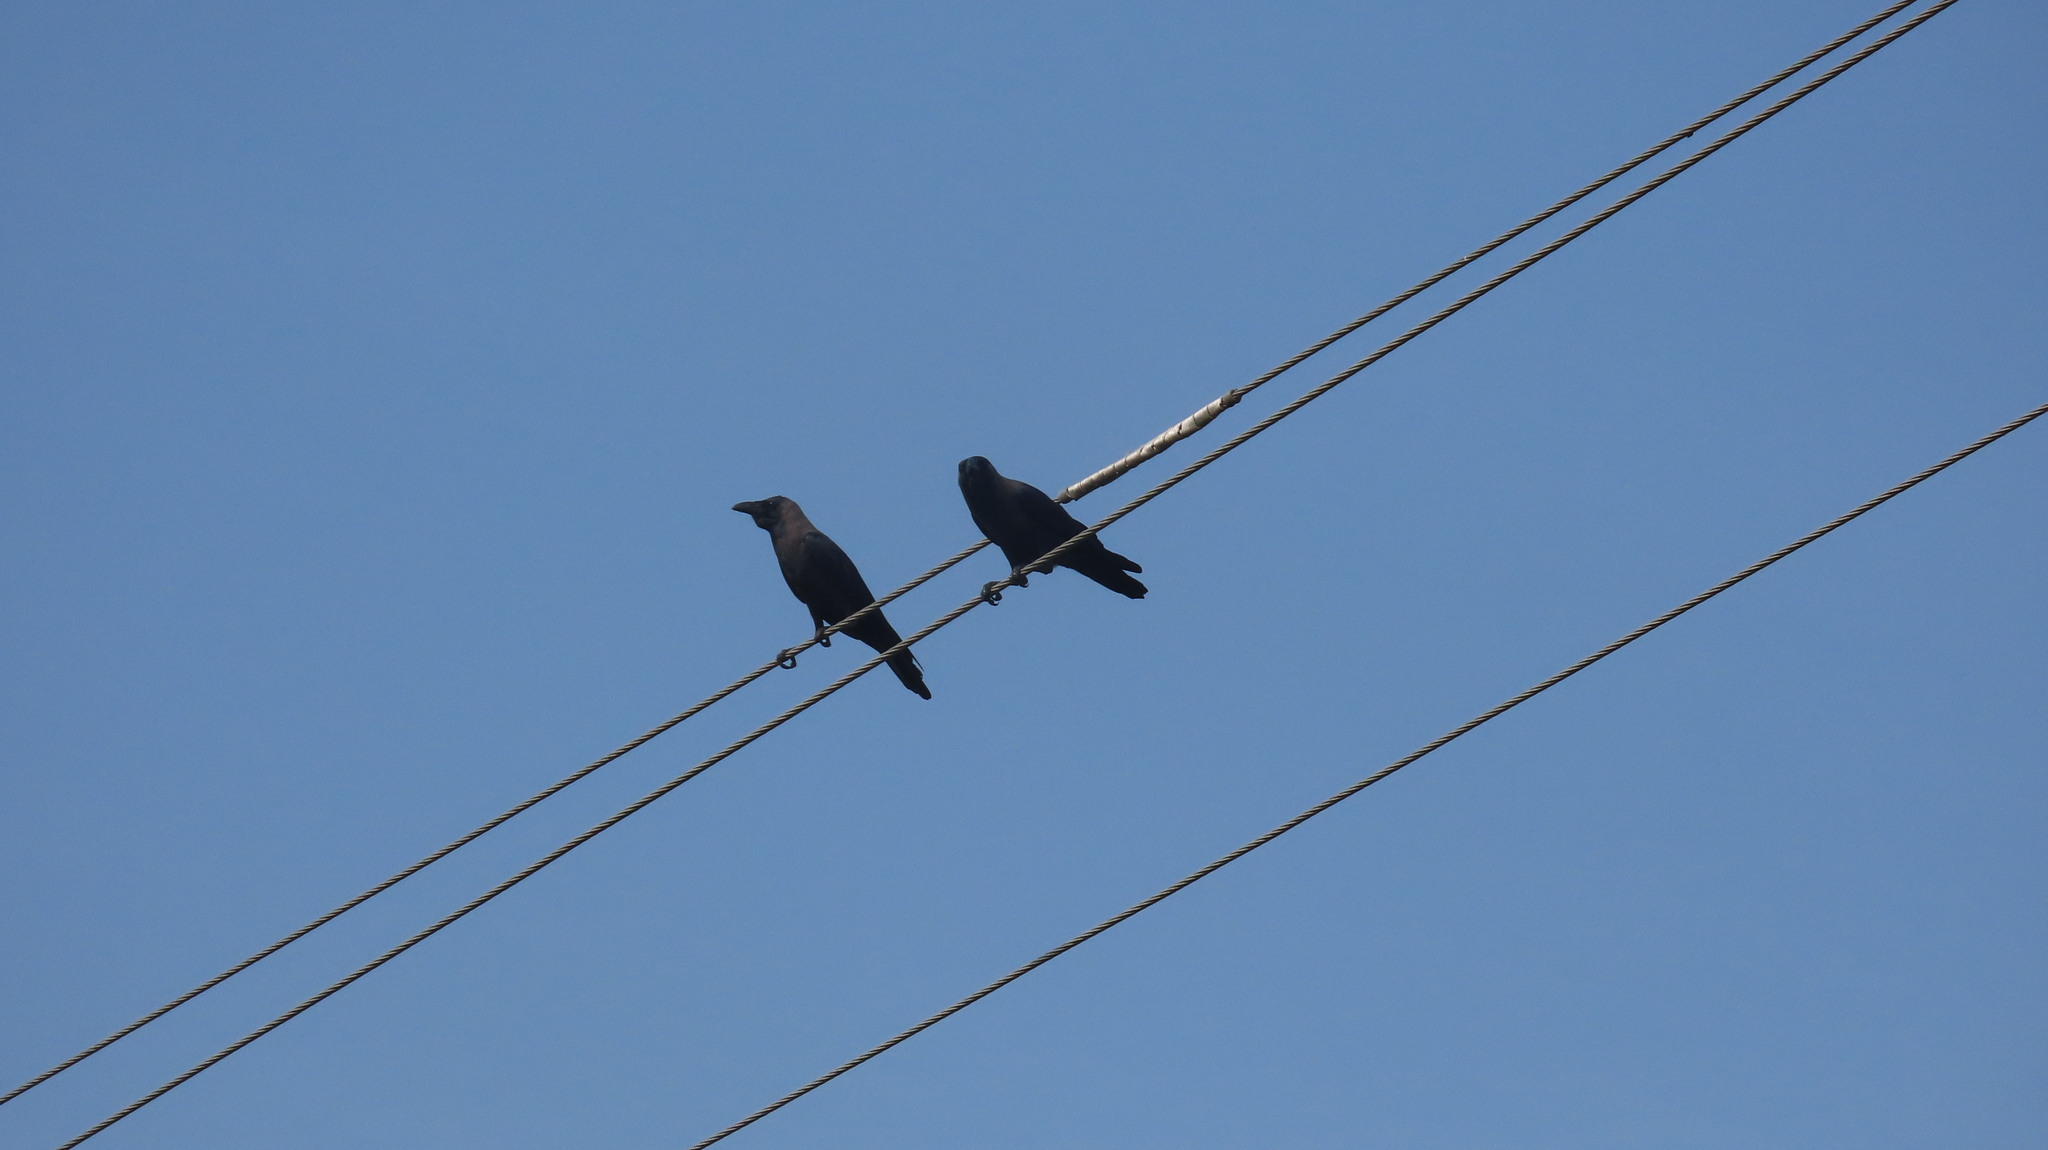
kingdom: Animalia
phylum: Chordata
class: Aves
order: Passeriformes
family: Corvidae
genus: Corvus
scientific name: Corvus splendens
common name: House crow
